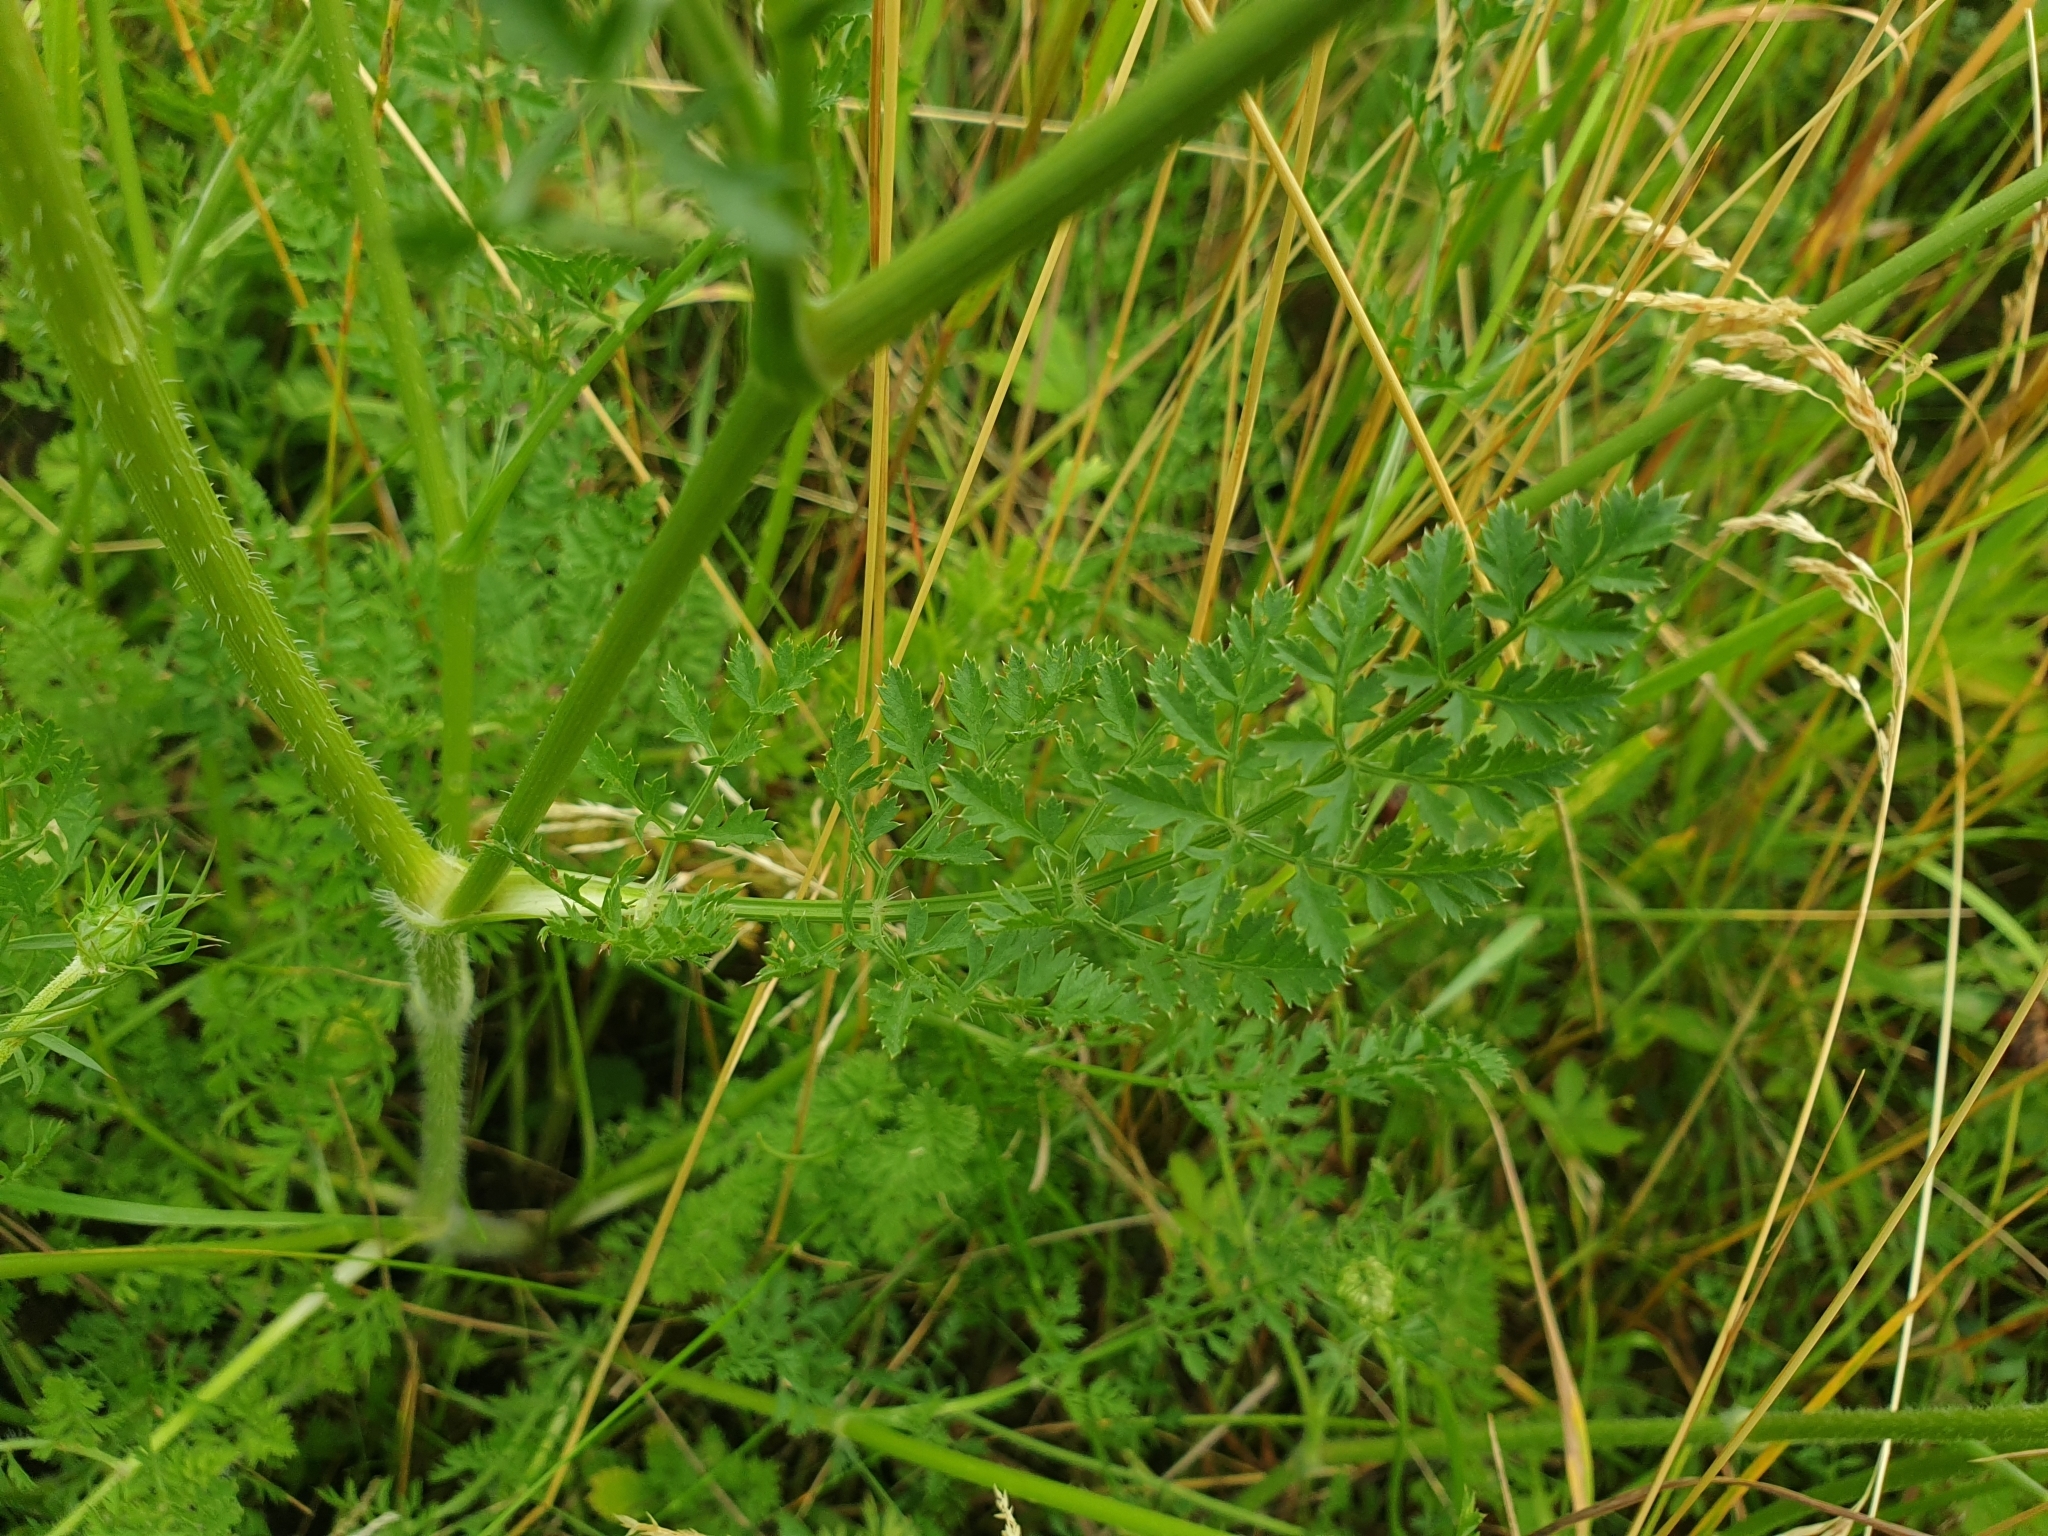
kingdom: Plantae
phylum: Tracheophyta
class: Magnoliopsida
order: Apiales
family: Apiaceae
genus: Daucus
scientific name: Daucus carota
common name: Wild carrot
